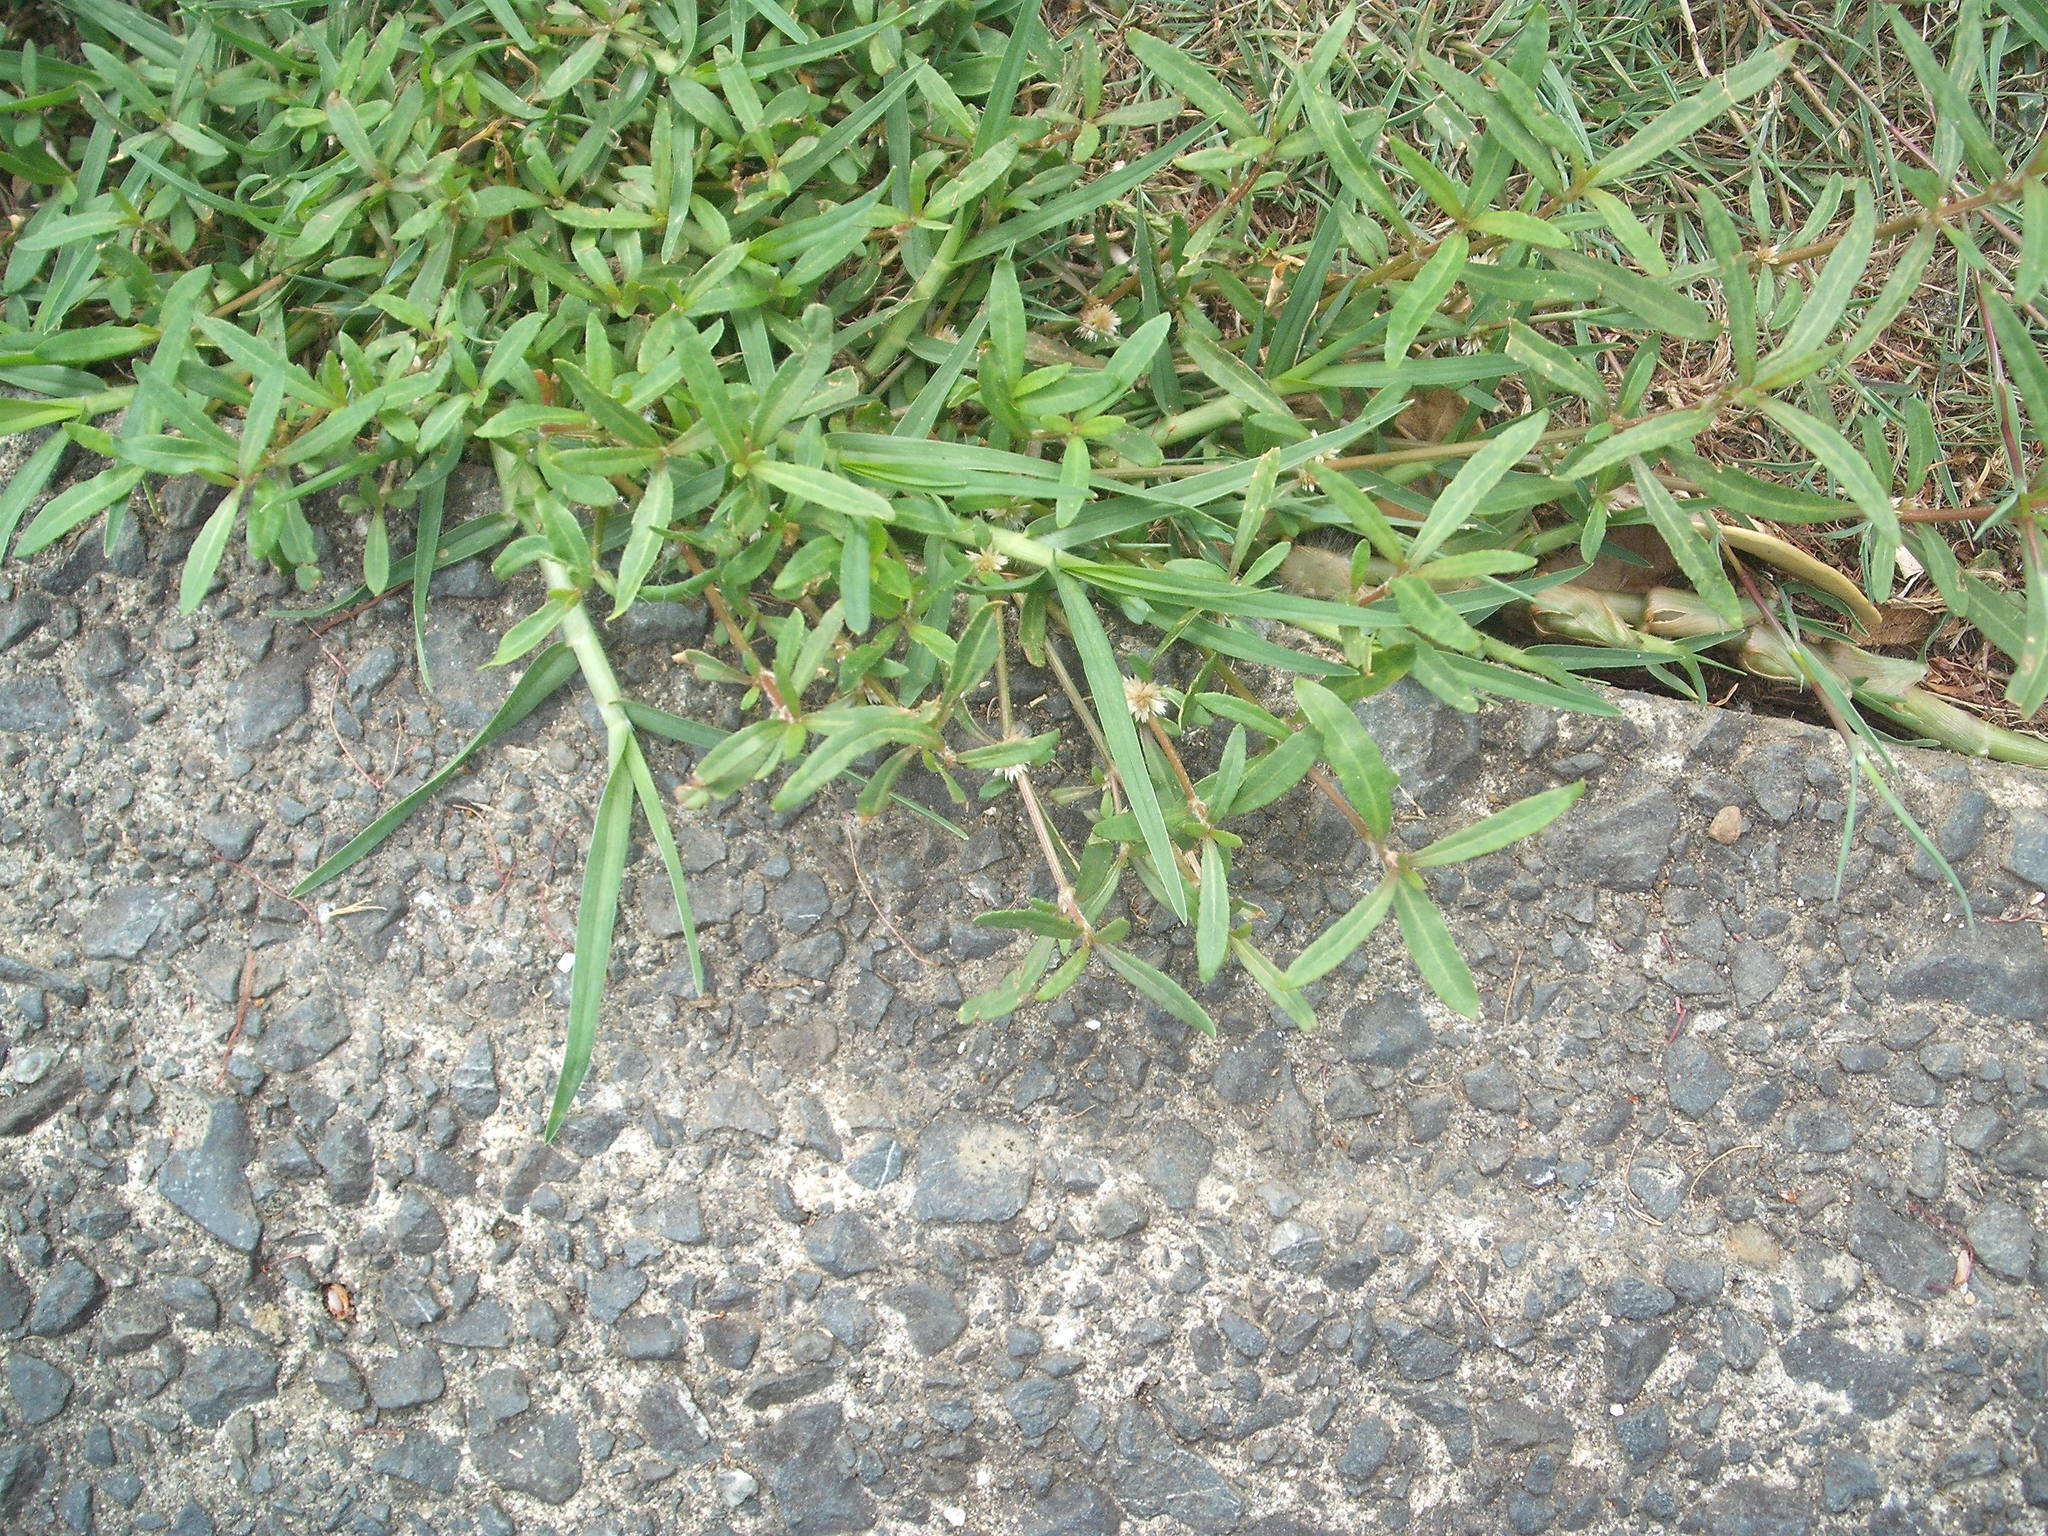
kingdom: Plantae
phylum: Tracheophyta
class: Magnoliopsida
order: Caryophyllales
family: Amaranthaceae
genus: Alternanthera
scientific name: Alternanthera denticulata
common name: Lesser joyweed
